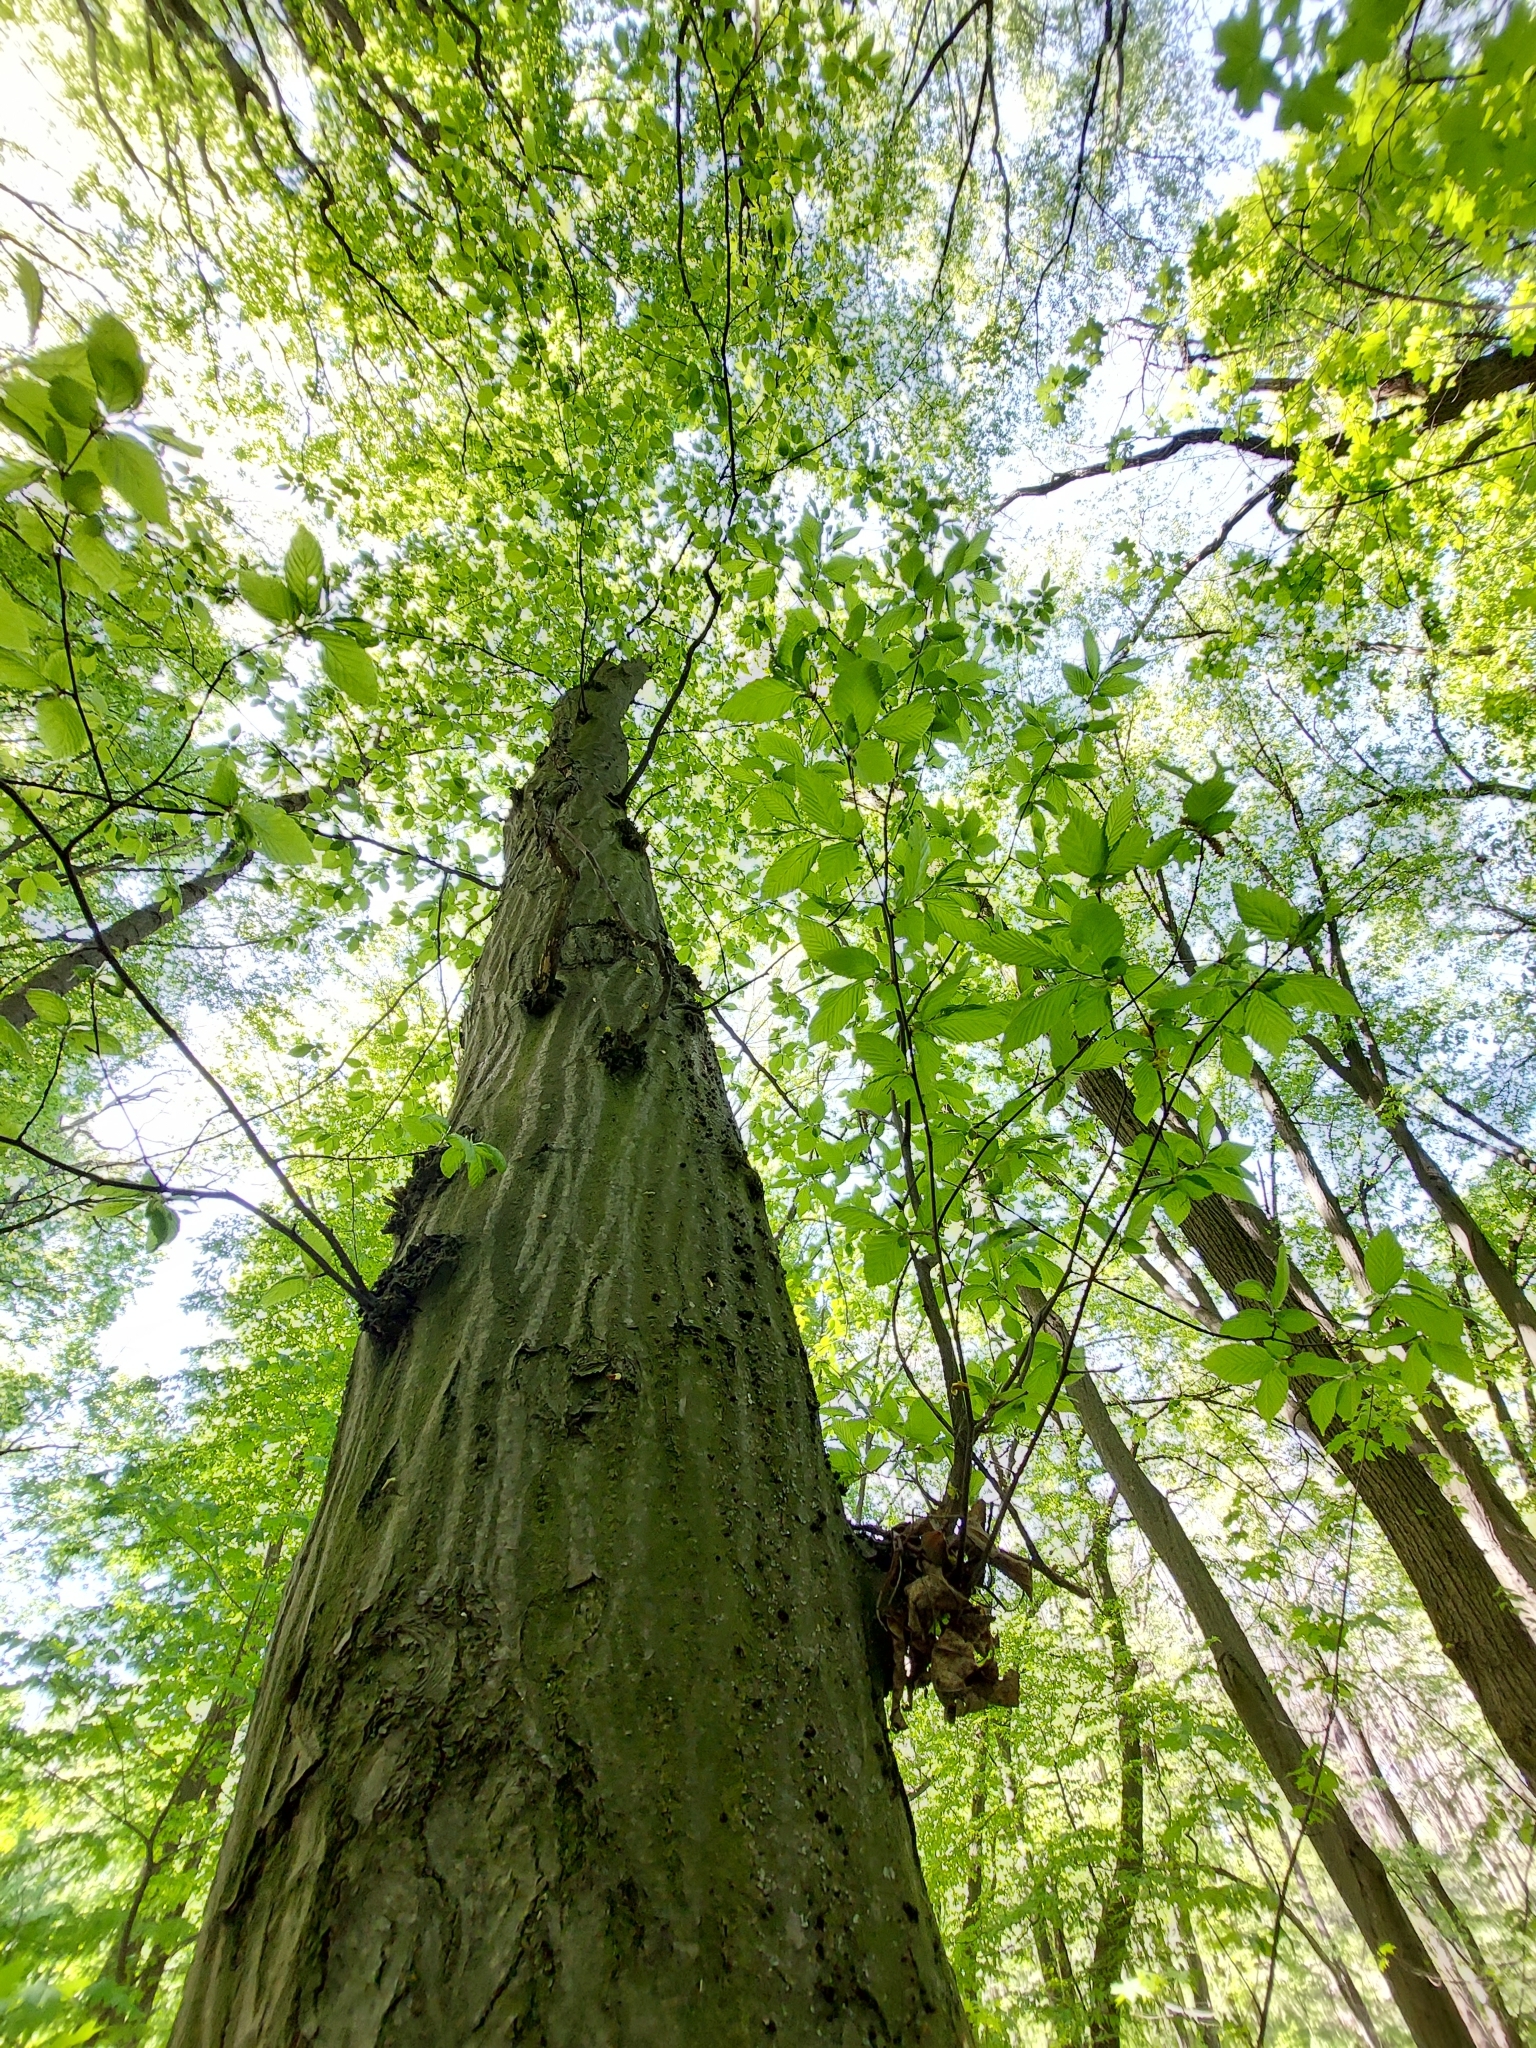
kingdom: Plantae
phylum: Tracheophyta
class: Magnoliopsida
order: Fagales
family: Betulaceae
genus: Carpinus
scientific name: Carpinus betulus
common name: Hornbeam
